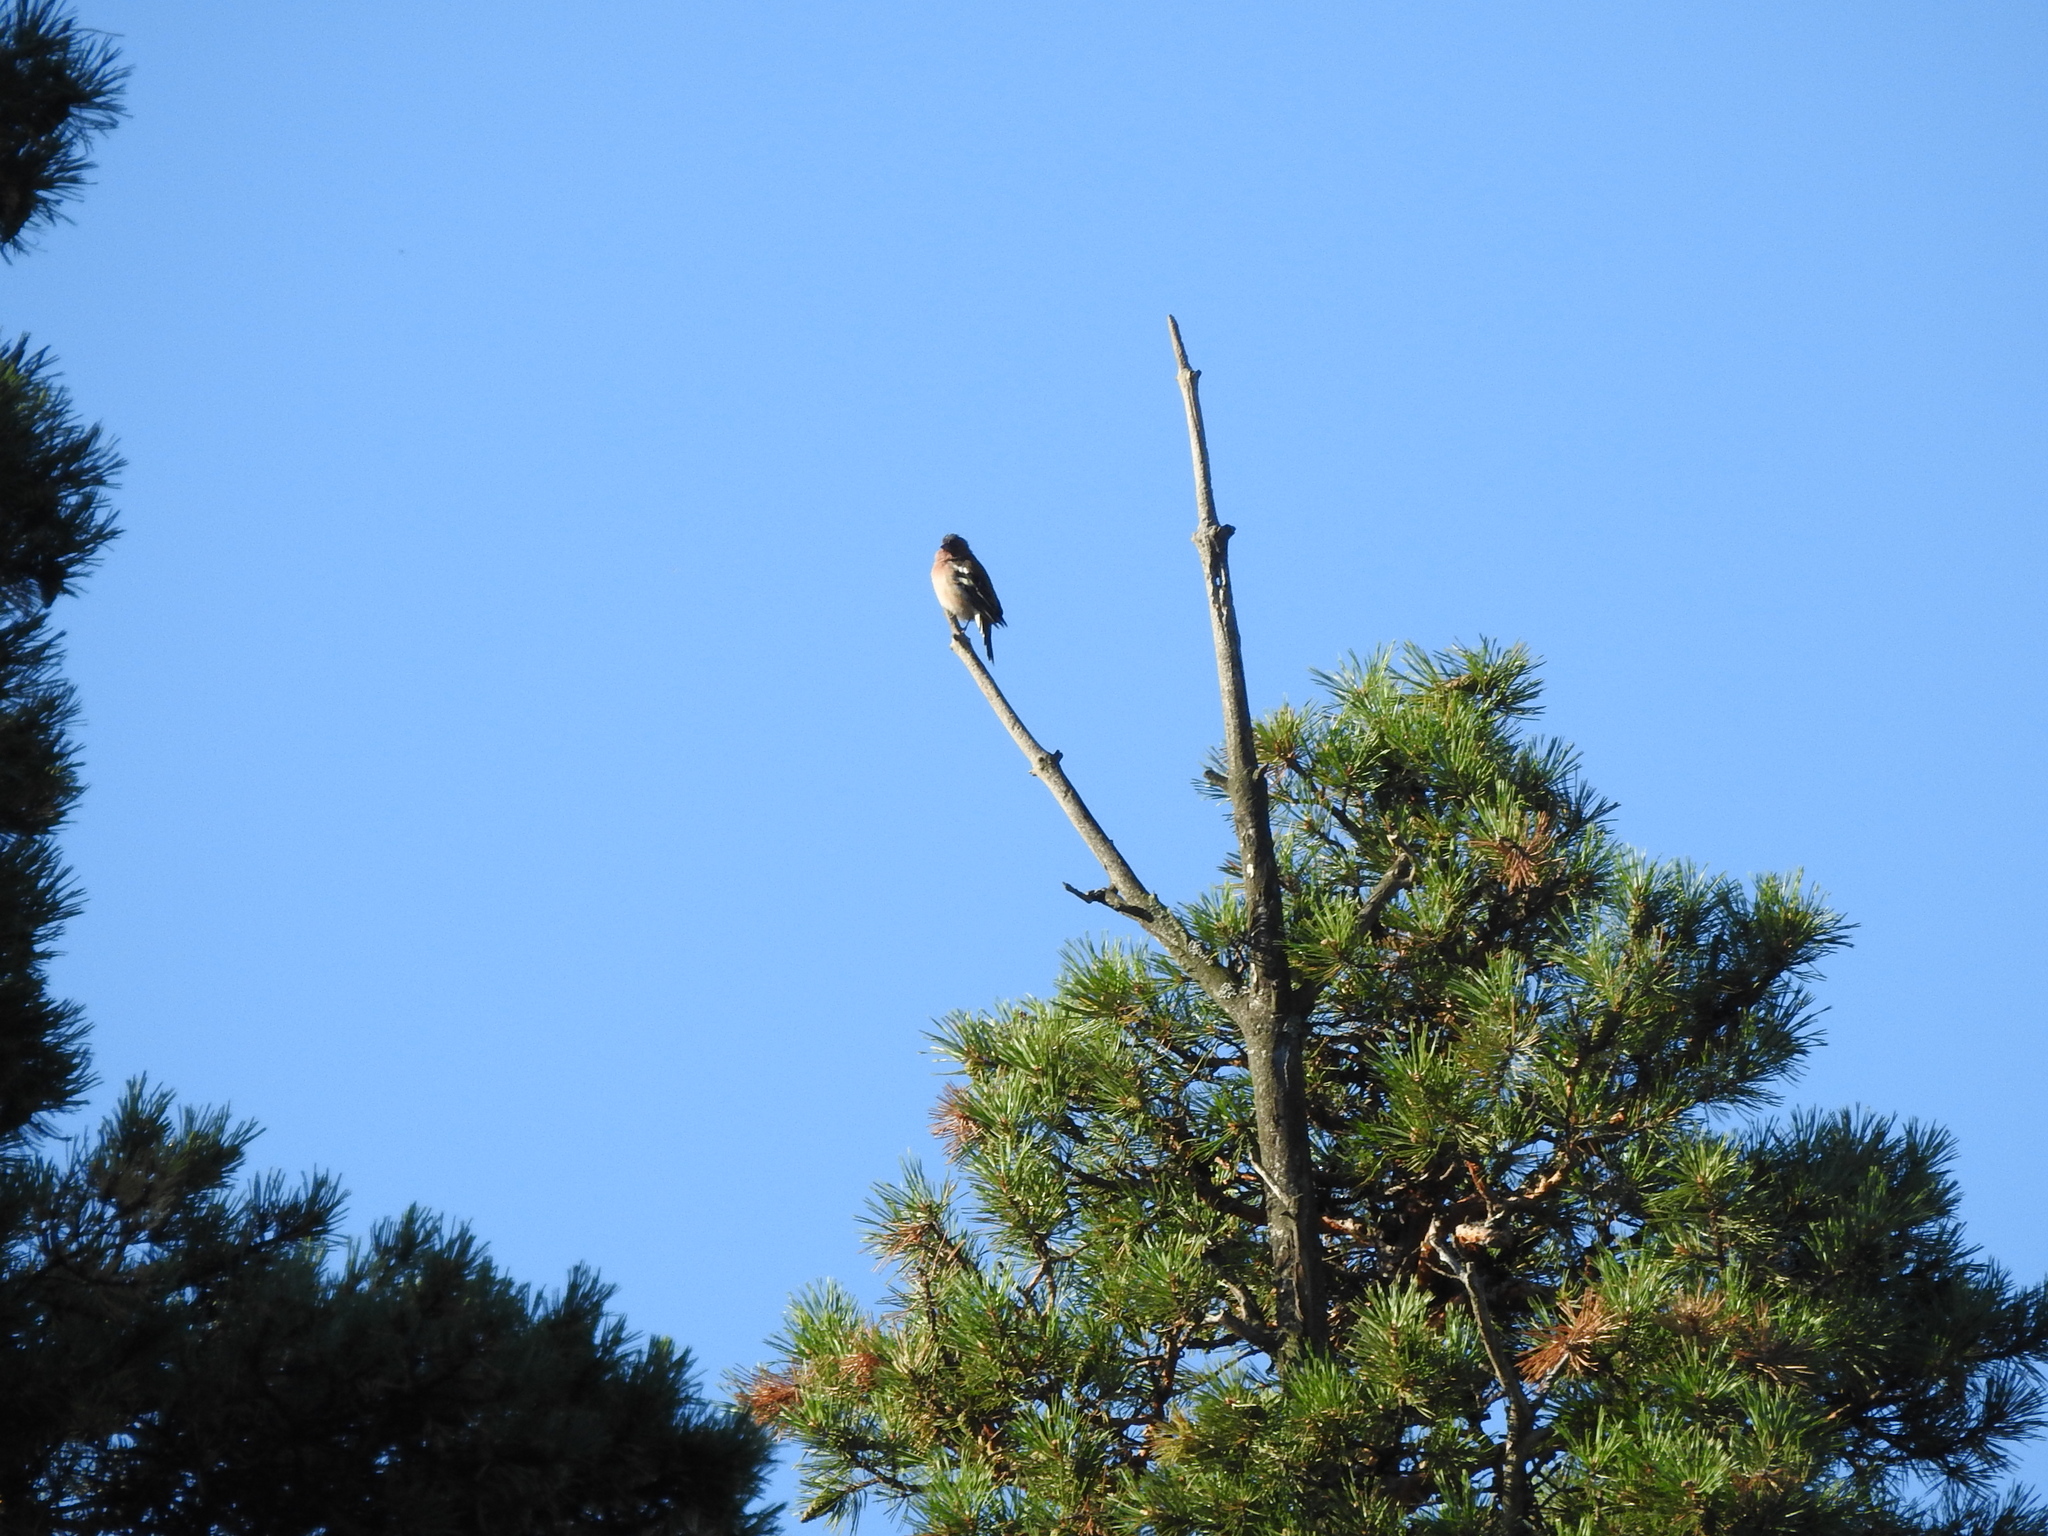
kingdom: Animalia
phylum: Chordata
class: Aves
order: Passeriformes
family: Fringillidae
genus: Fringilla
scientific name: Fringilla coelebs
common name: Common chaffinch
